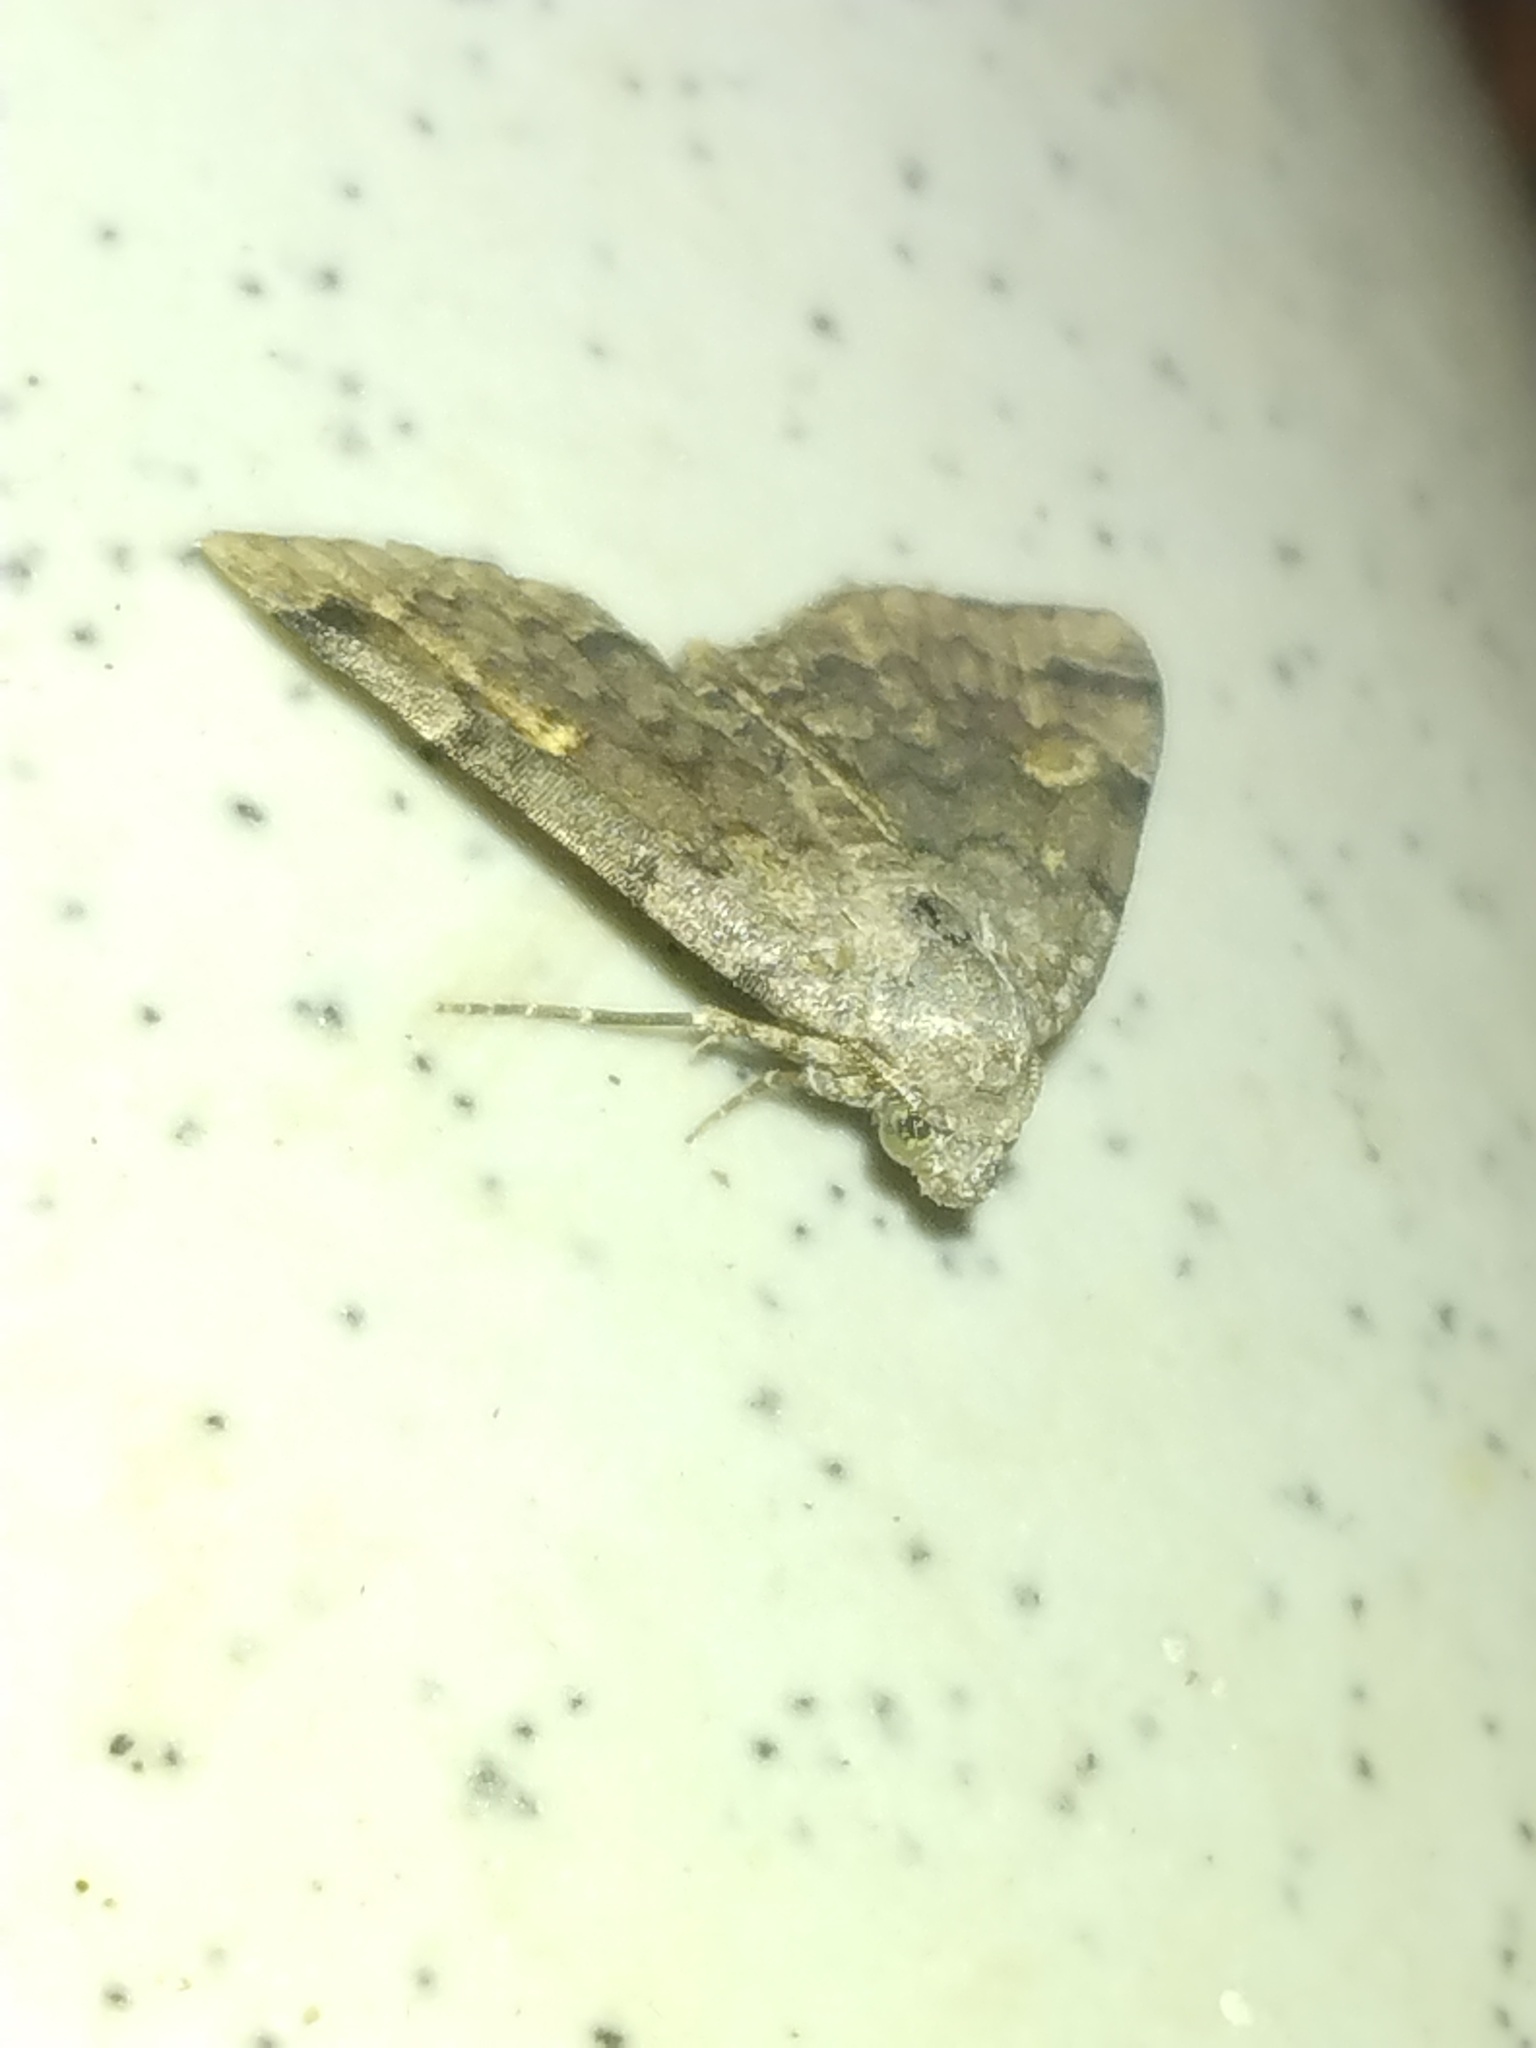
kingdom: Animalia
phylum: Arthropoda
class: Insecta
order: Lepidoptera
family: Erebidae
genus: Idia
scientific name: Idia aemula
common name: Common idia moth
